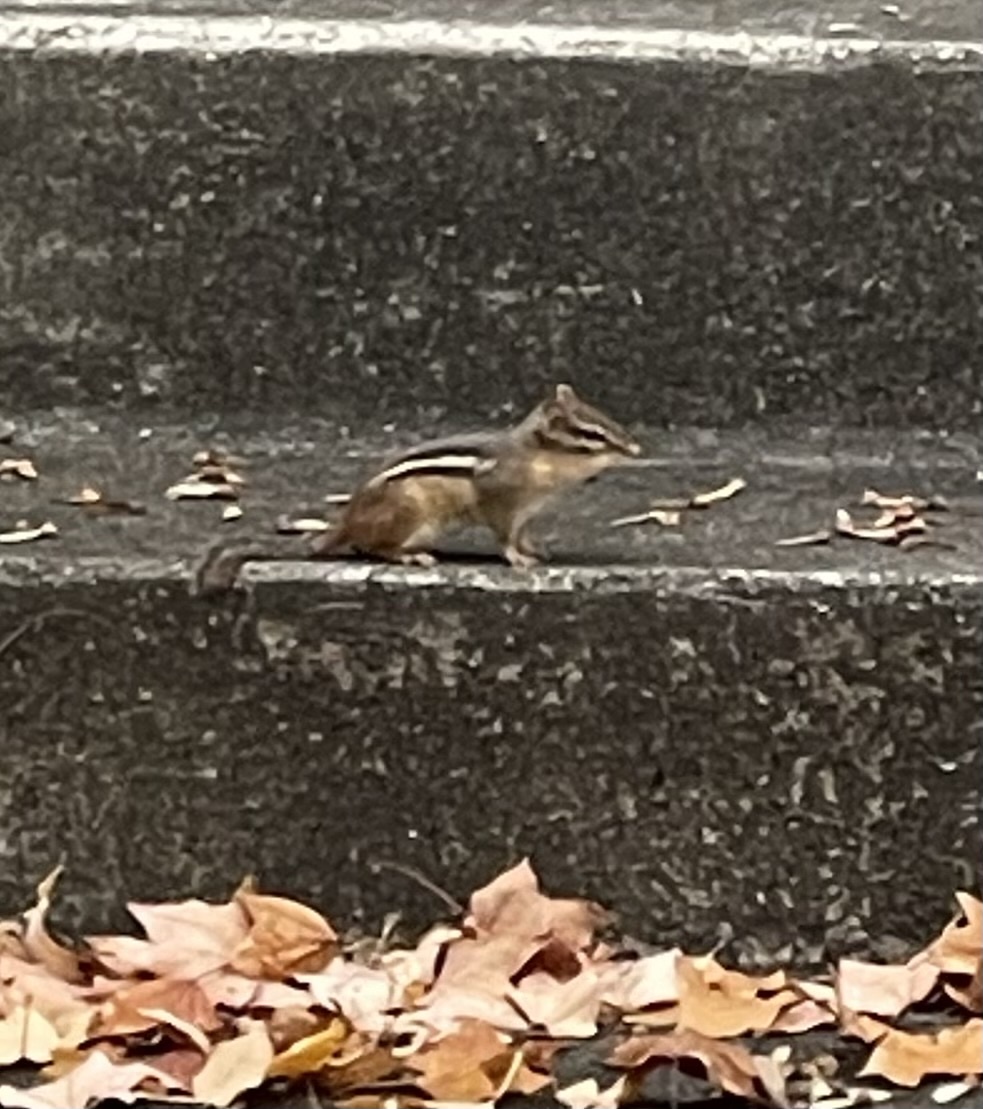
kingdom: Animalia
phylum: Chordata
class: Mammalia
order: Rodentia
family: Sciuridae
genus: Tamias
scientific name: Tamias striatus
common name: Eastern chipmunk
